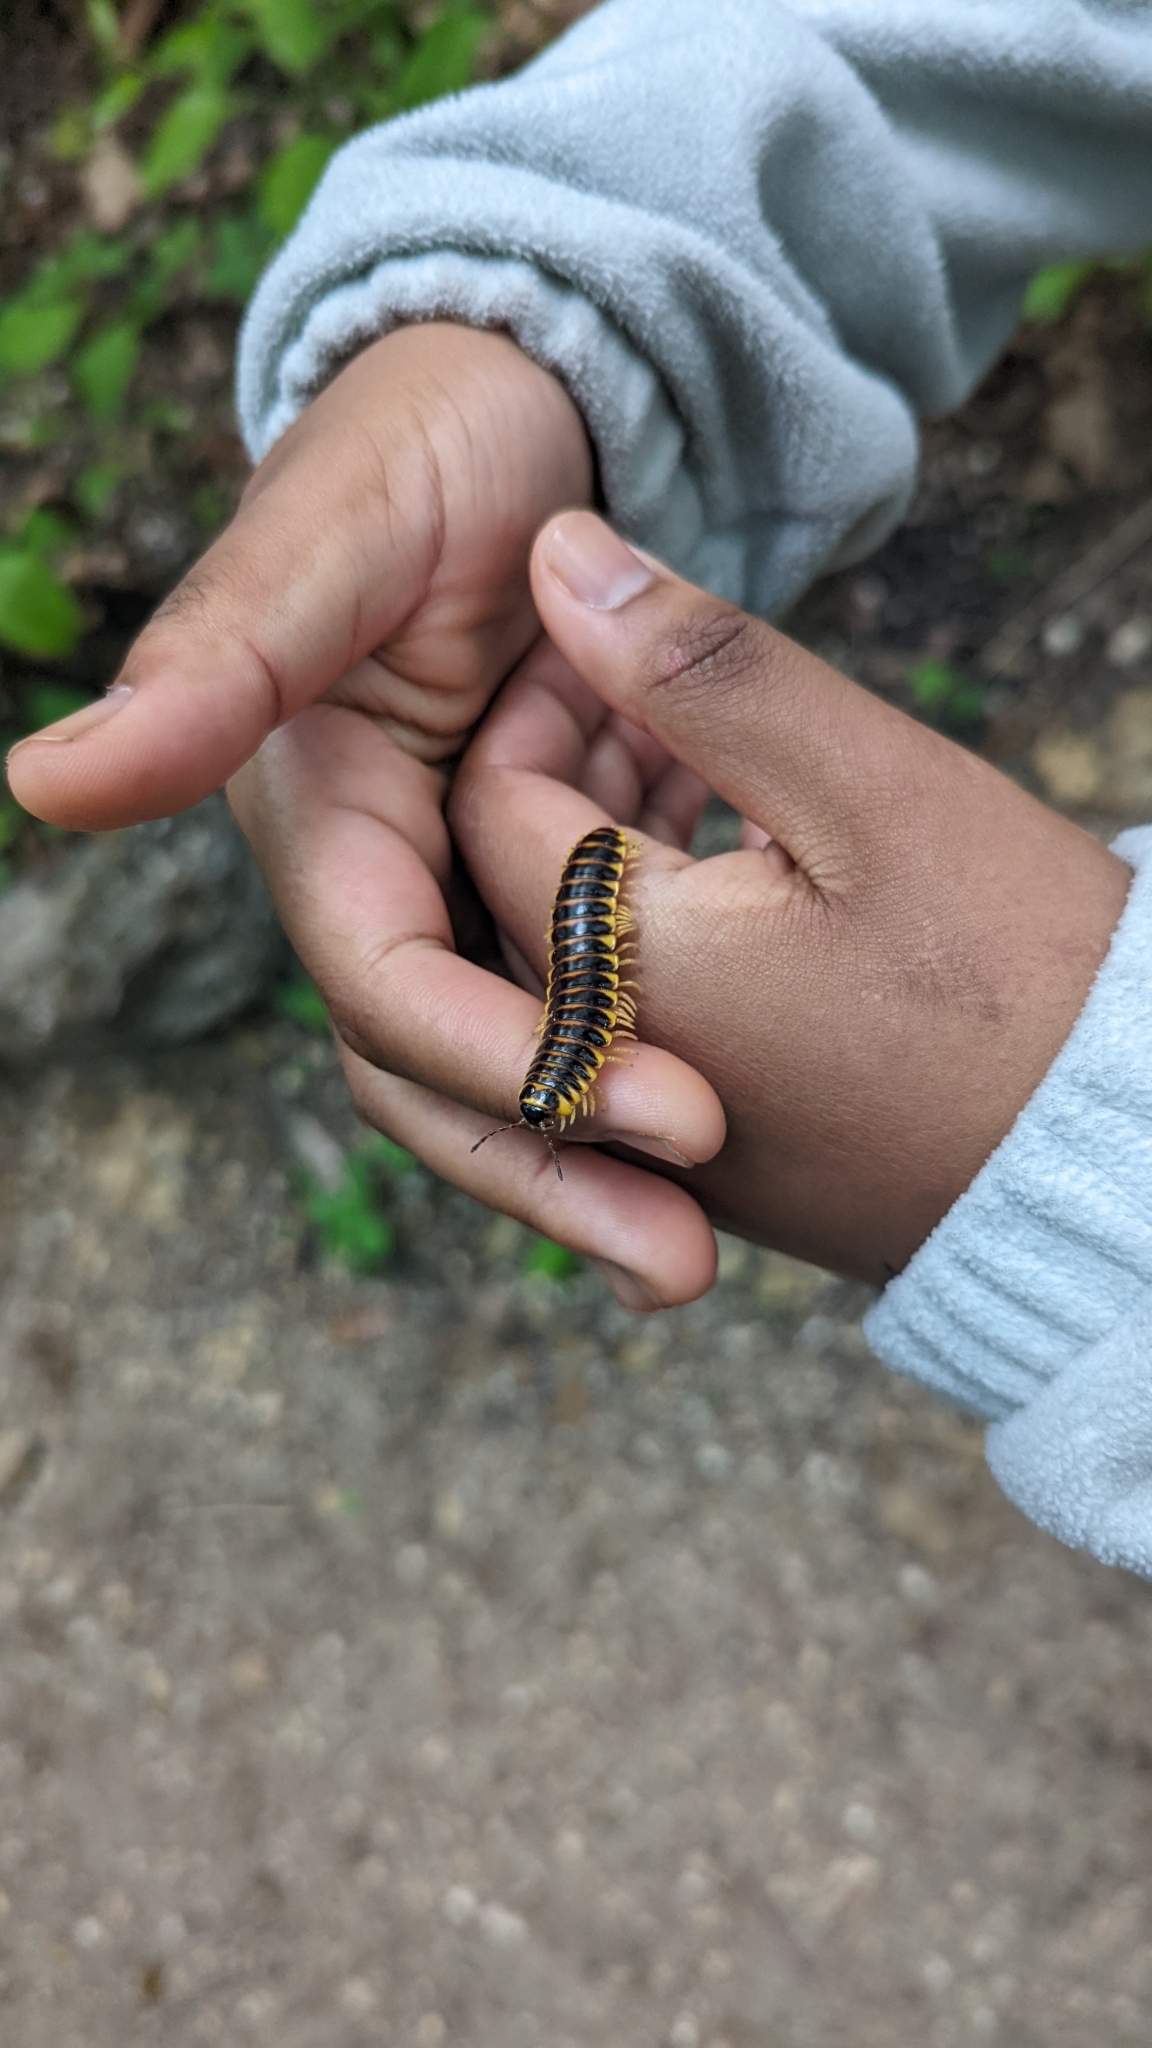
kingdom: Animalia
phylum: Arthropoda
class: Diplopoda
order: Polydesmida
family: Xystodesmidae
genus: Apheloria
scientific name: Apheloria virginiensis
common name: Black-and-gold flat millipede
